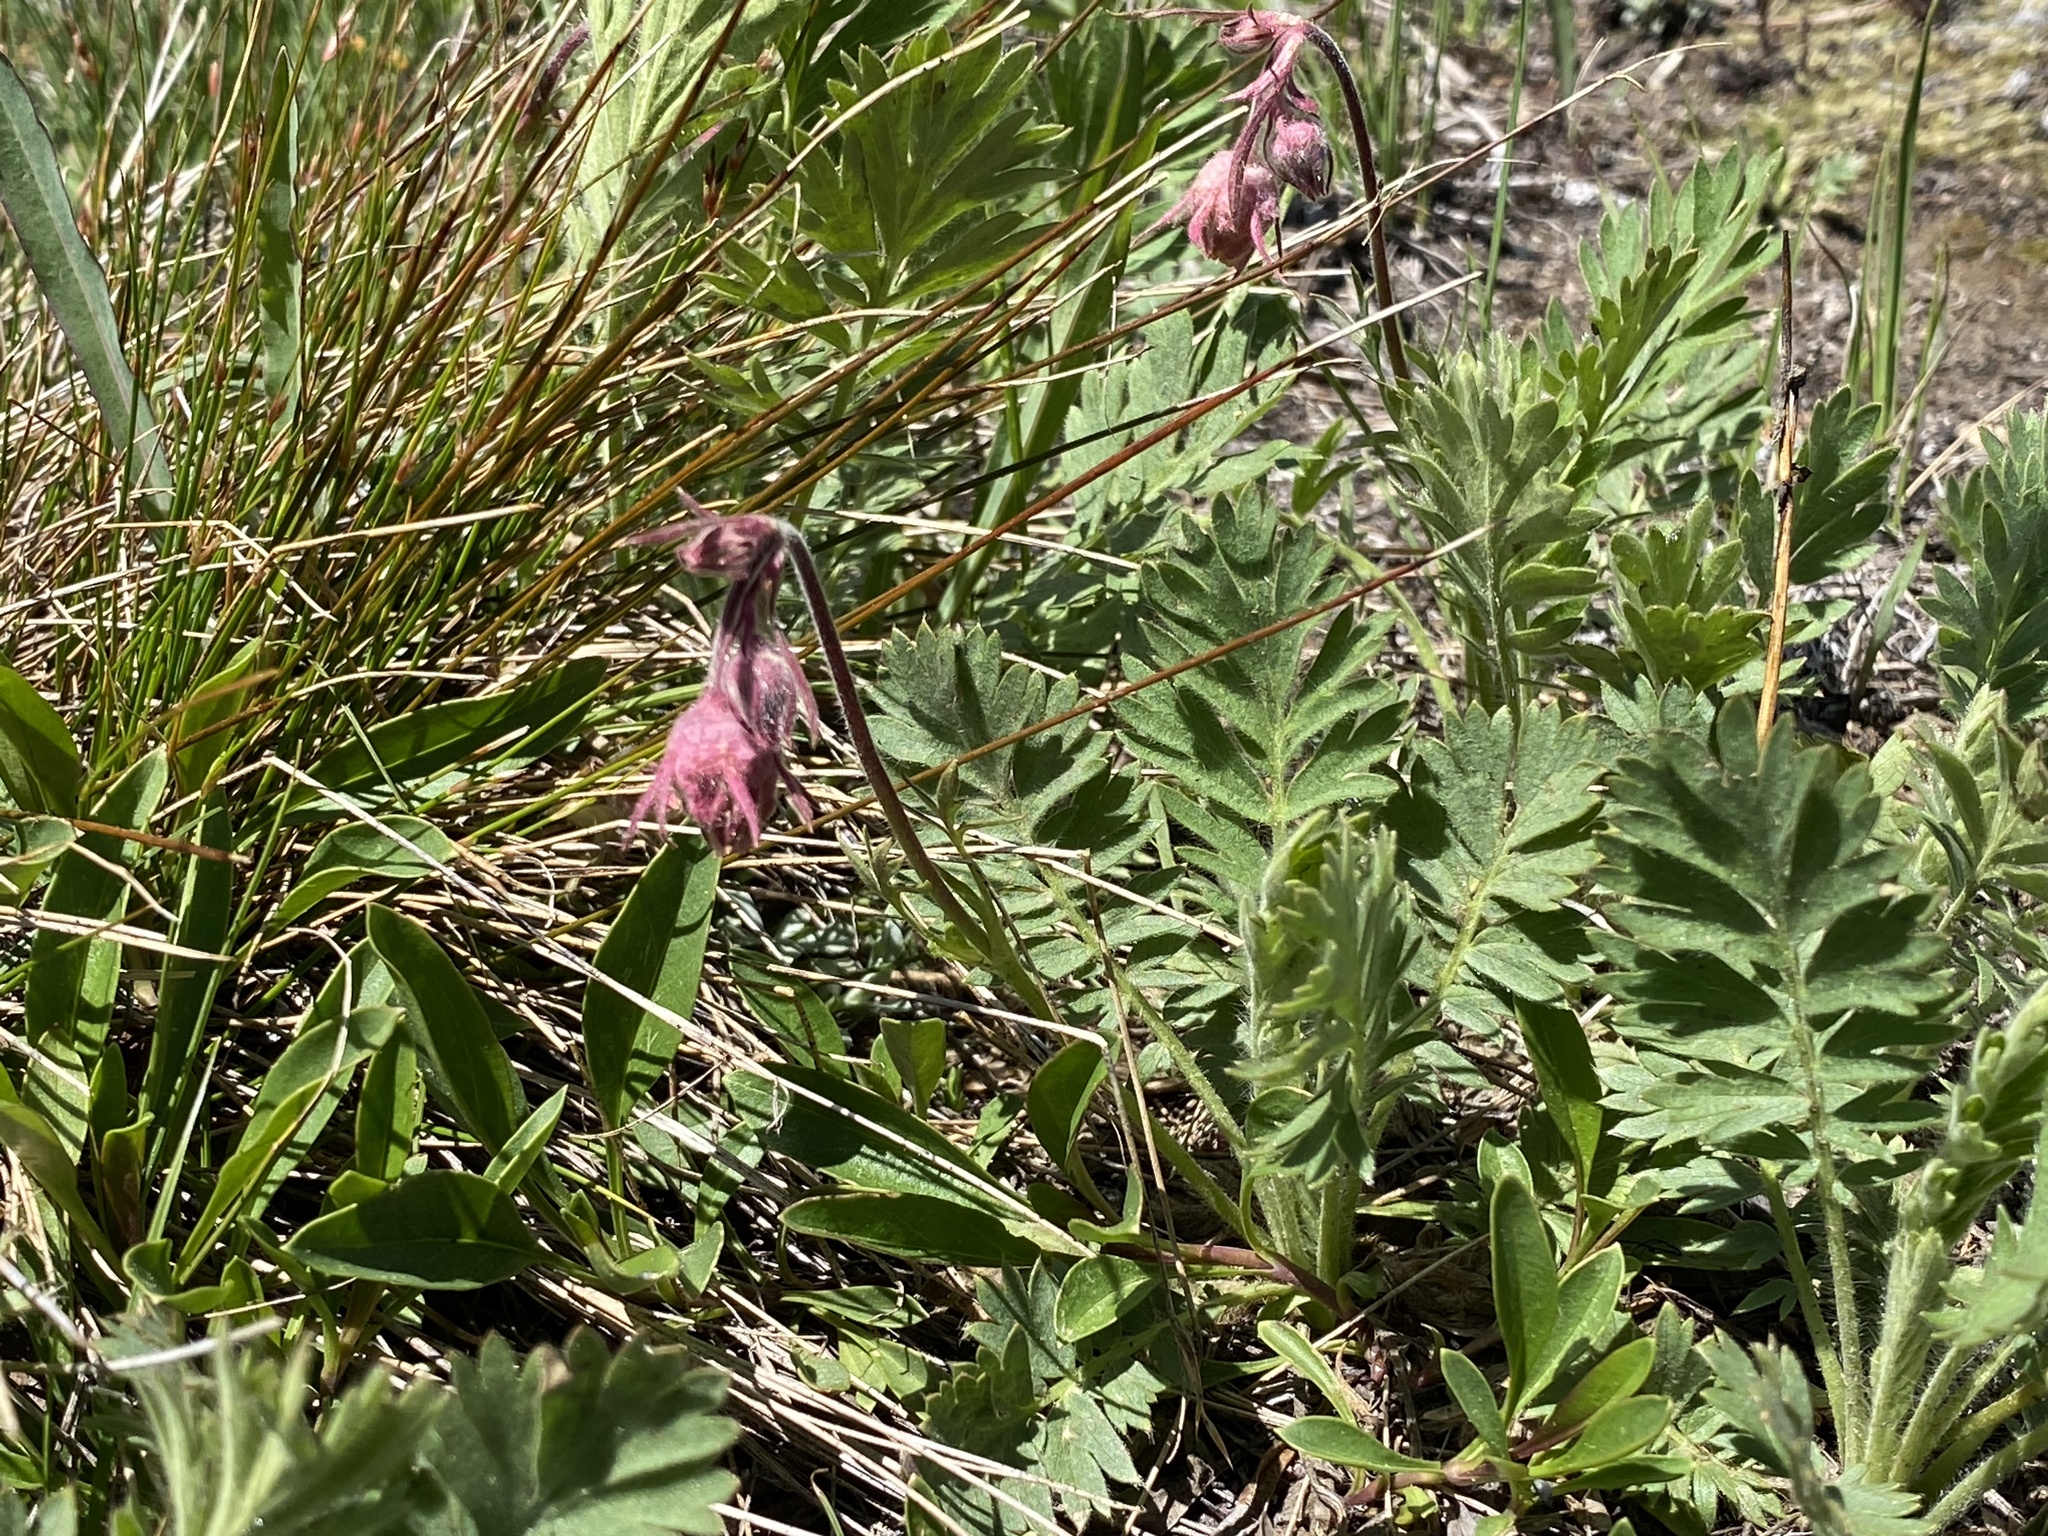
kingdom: Plantae
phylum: Tracheophyta
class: Magnoliopsida
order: Rosales
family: Rosaceae
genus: Geum
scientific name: Geum triflorum
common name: Old man's whiskers
